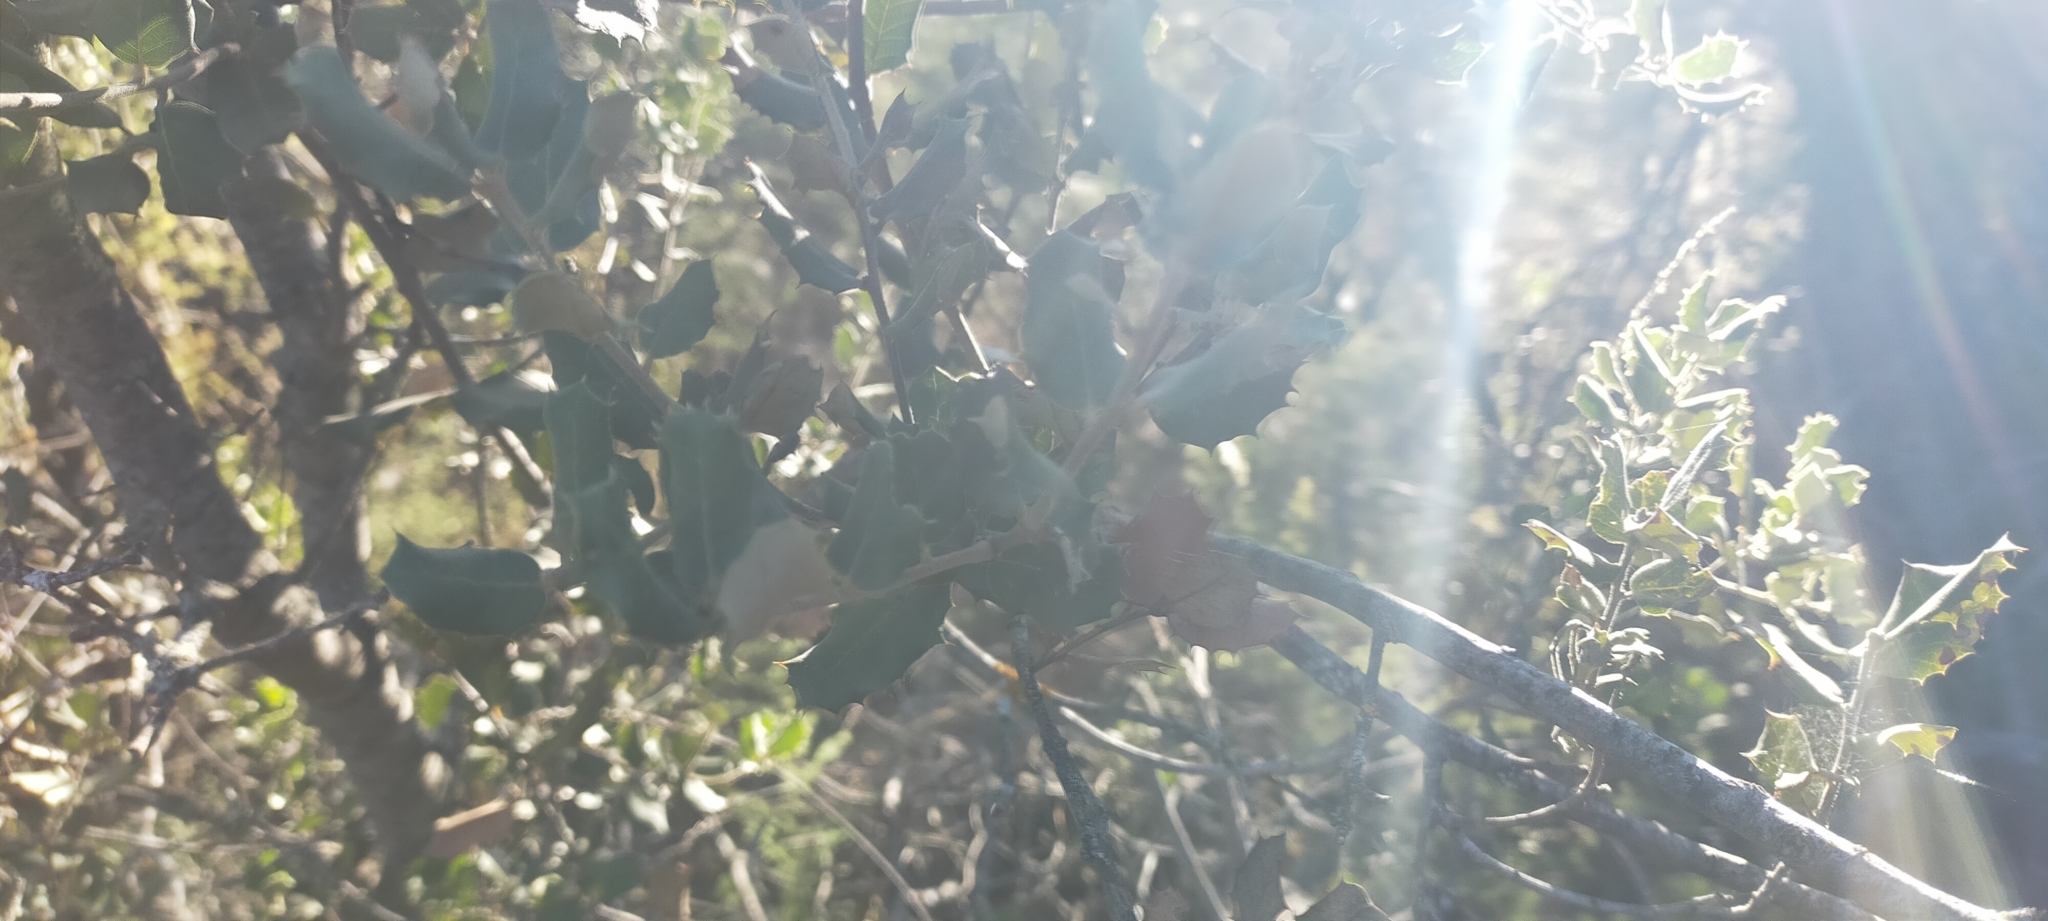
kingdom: Plantae
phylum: Tracheophyta
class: Magnoliopsida
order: Fagales
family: Fagaceae
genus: Quercus
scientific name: Quercus rotundifolia
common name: Holm oak
